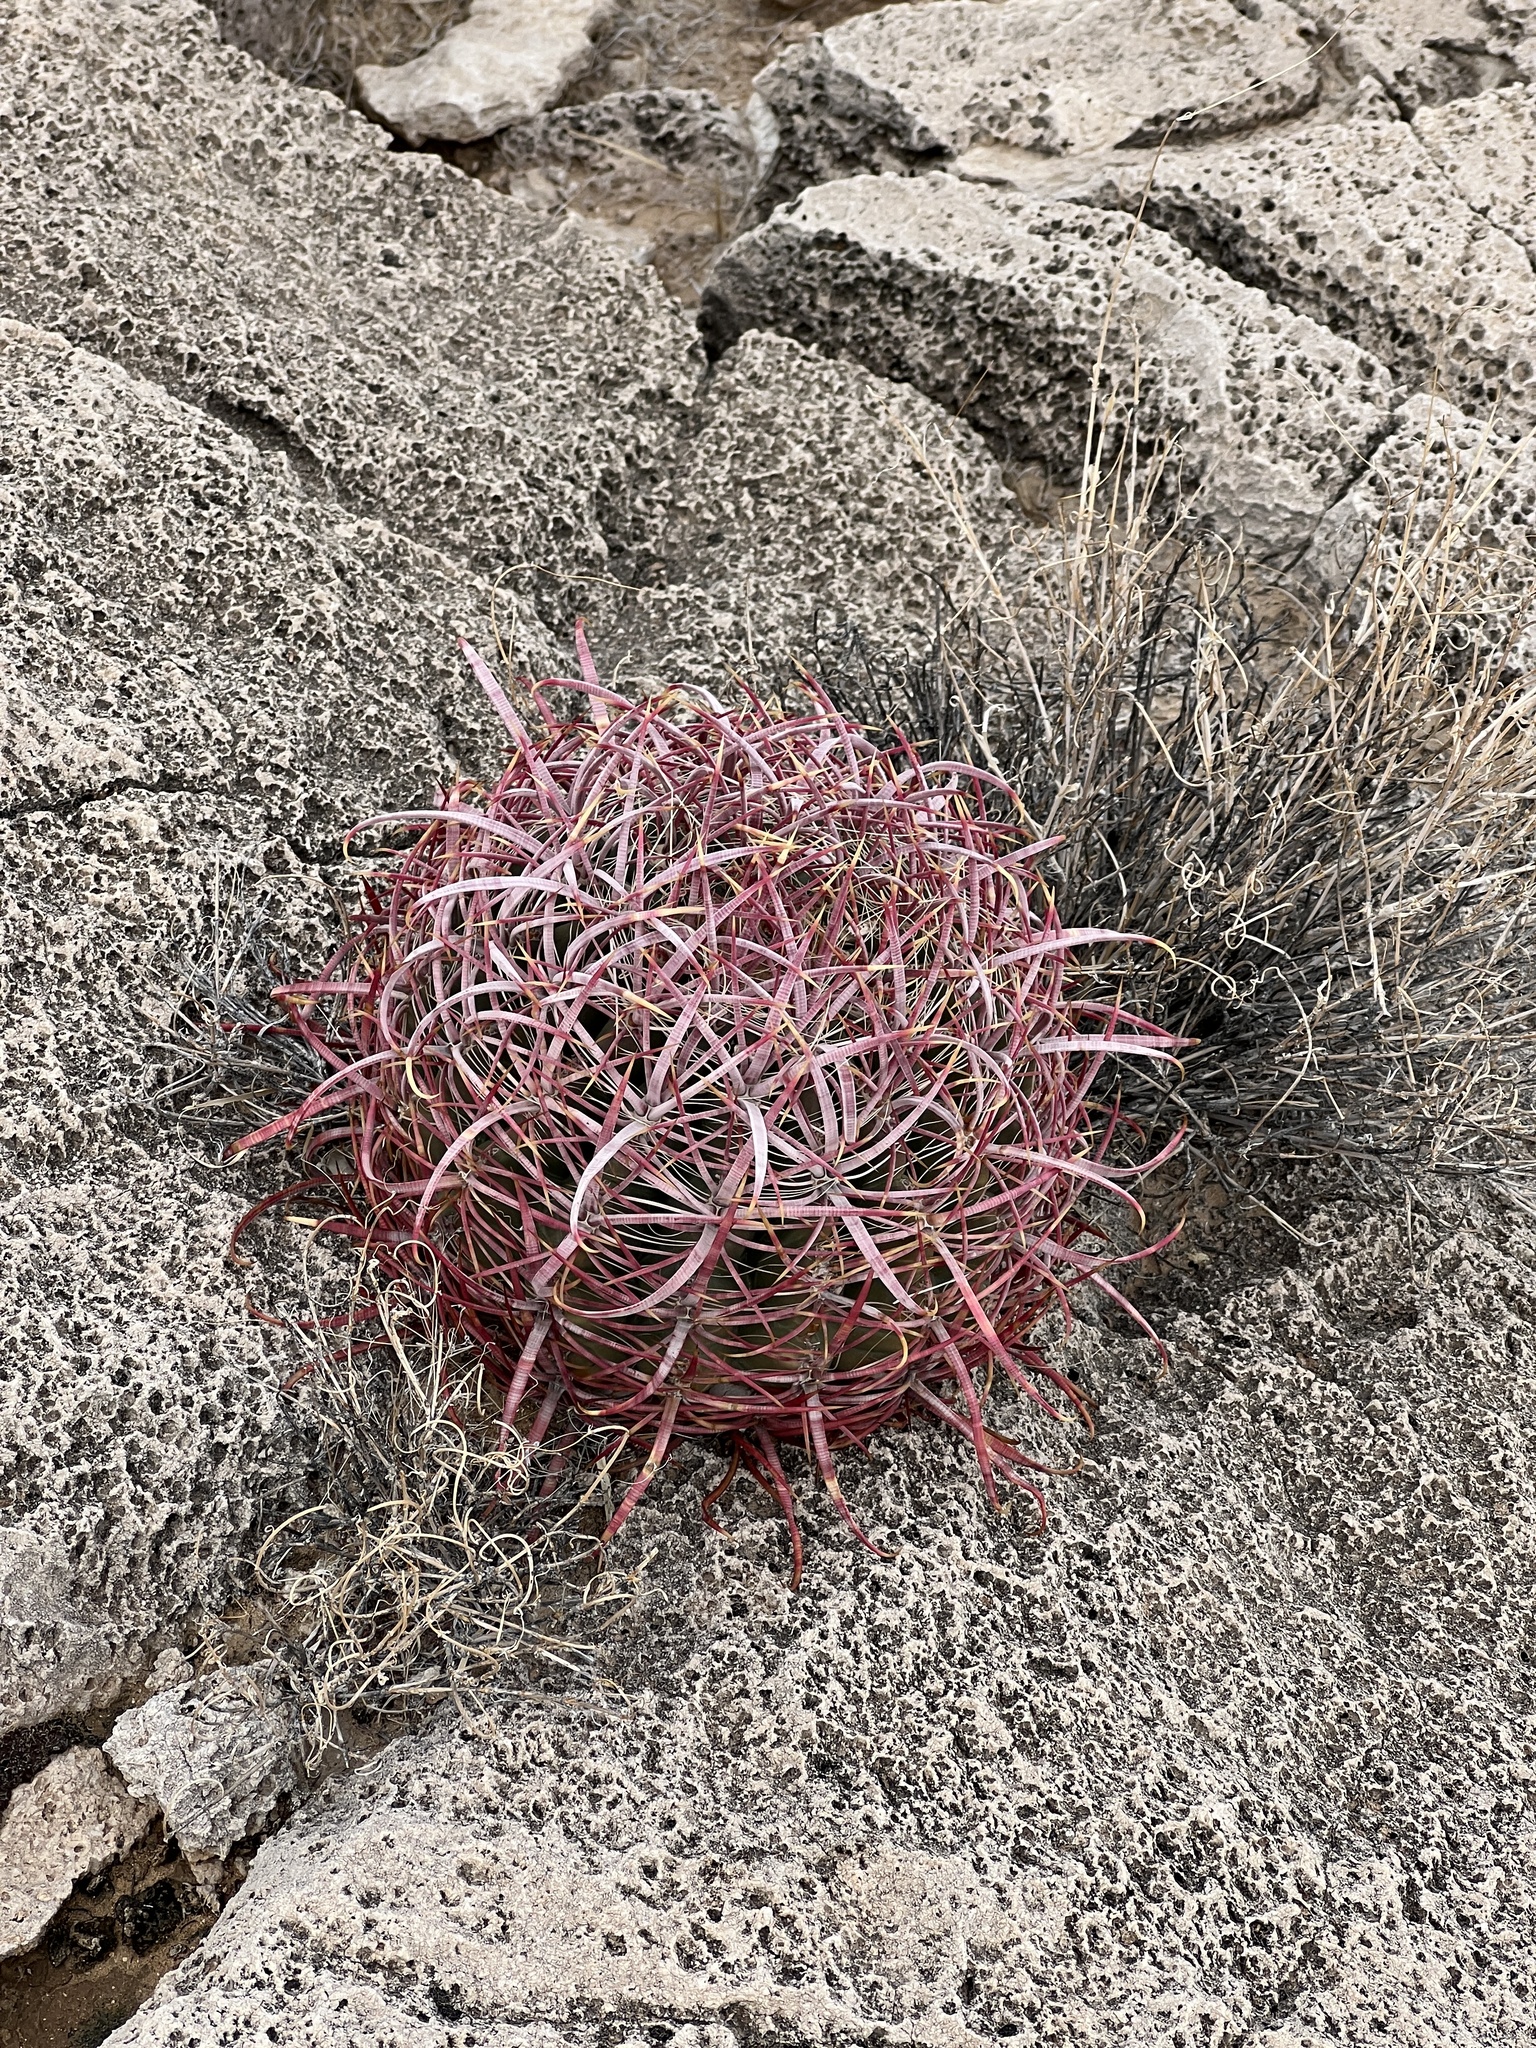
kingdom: Plantae
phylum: Tracheophyta
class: Magnoliopsida
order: Caryophyllales
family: Cactaceae
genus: Ferocactus
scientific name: Ferocactus cylindraceus
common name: California barrel cactus
